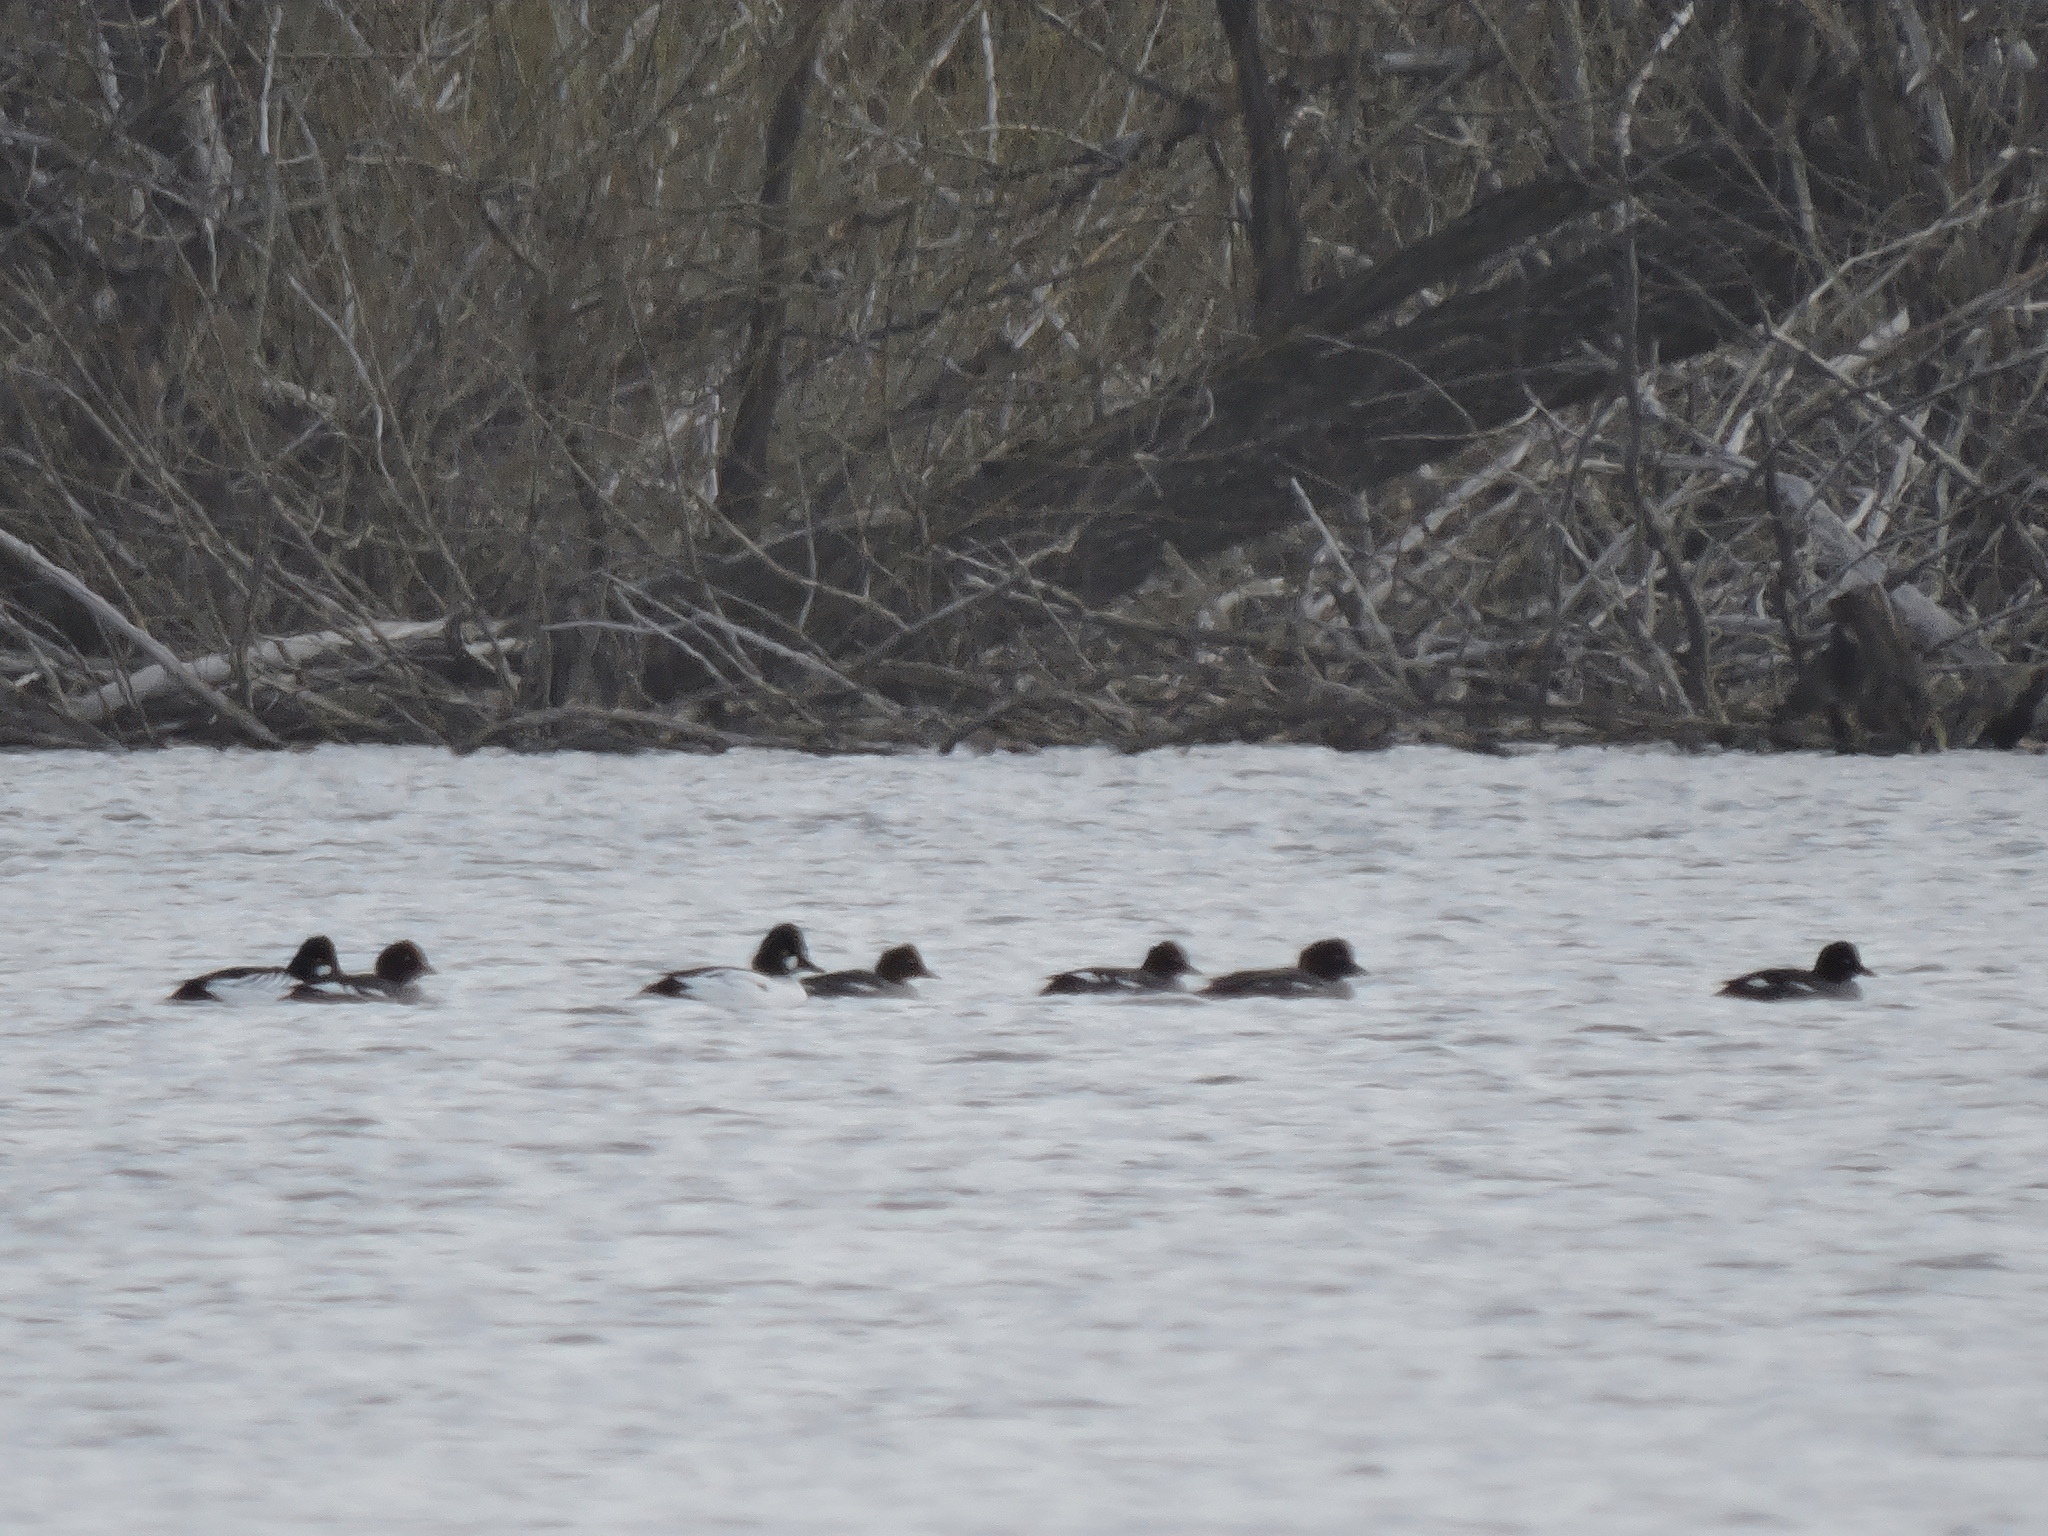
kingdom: Animalia
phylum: Chordata
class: Aves
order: Anseriformes
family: Anatidae
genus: Bucephala
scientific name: Bucephala clangula
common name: Common goldeneye
